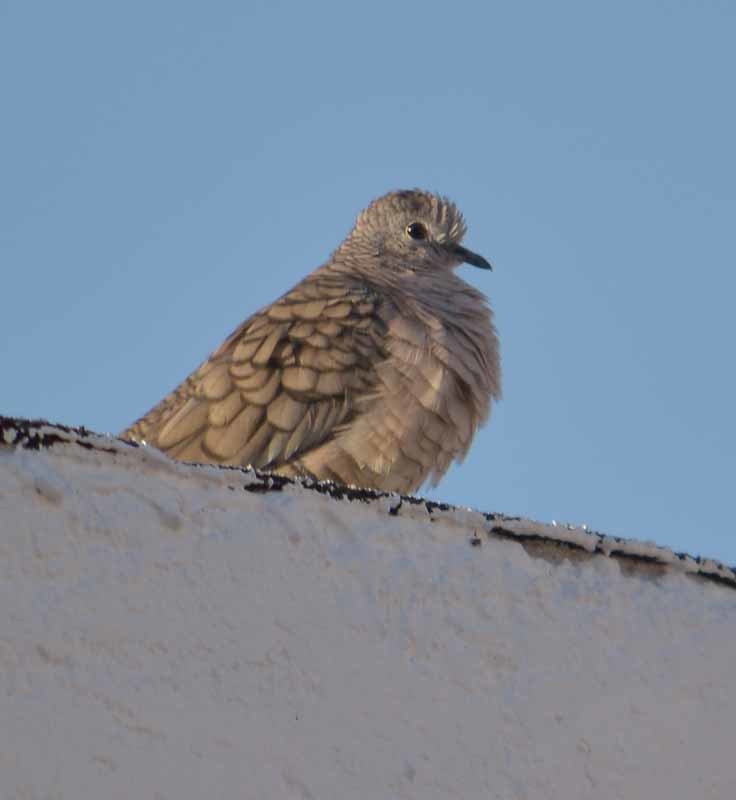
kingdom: Animalia
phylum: Chordata
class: Aves
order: Columbiformes
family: Columbidae
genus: Columbina
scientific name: Columbina inca
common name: Inca dove
